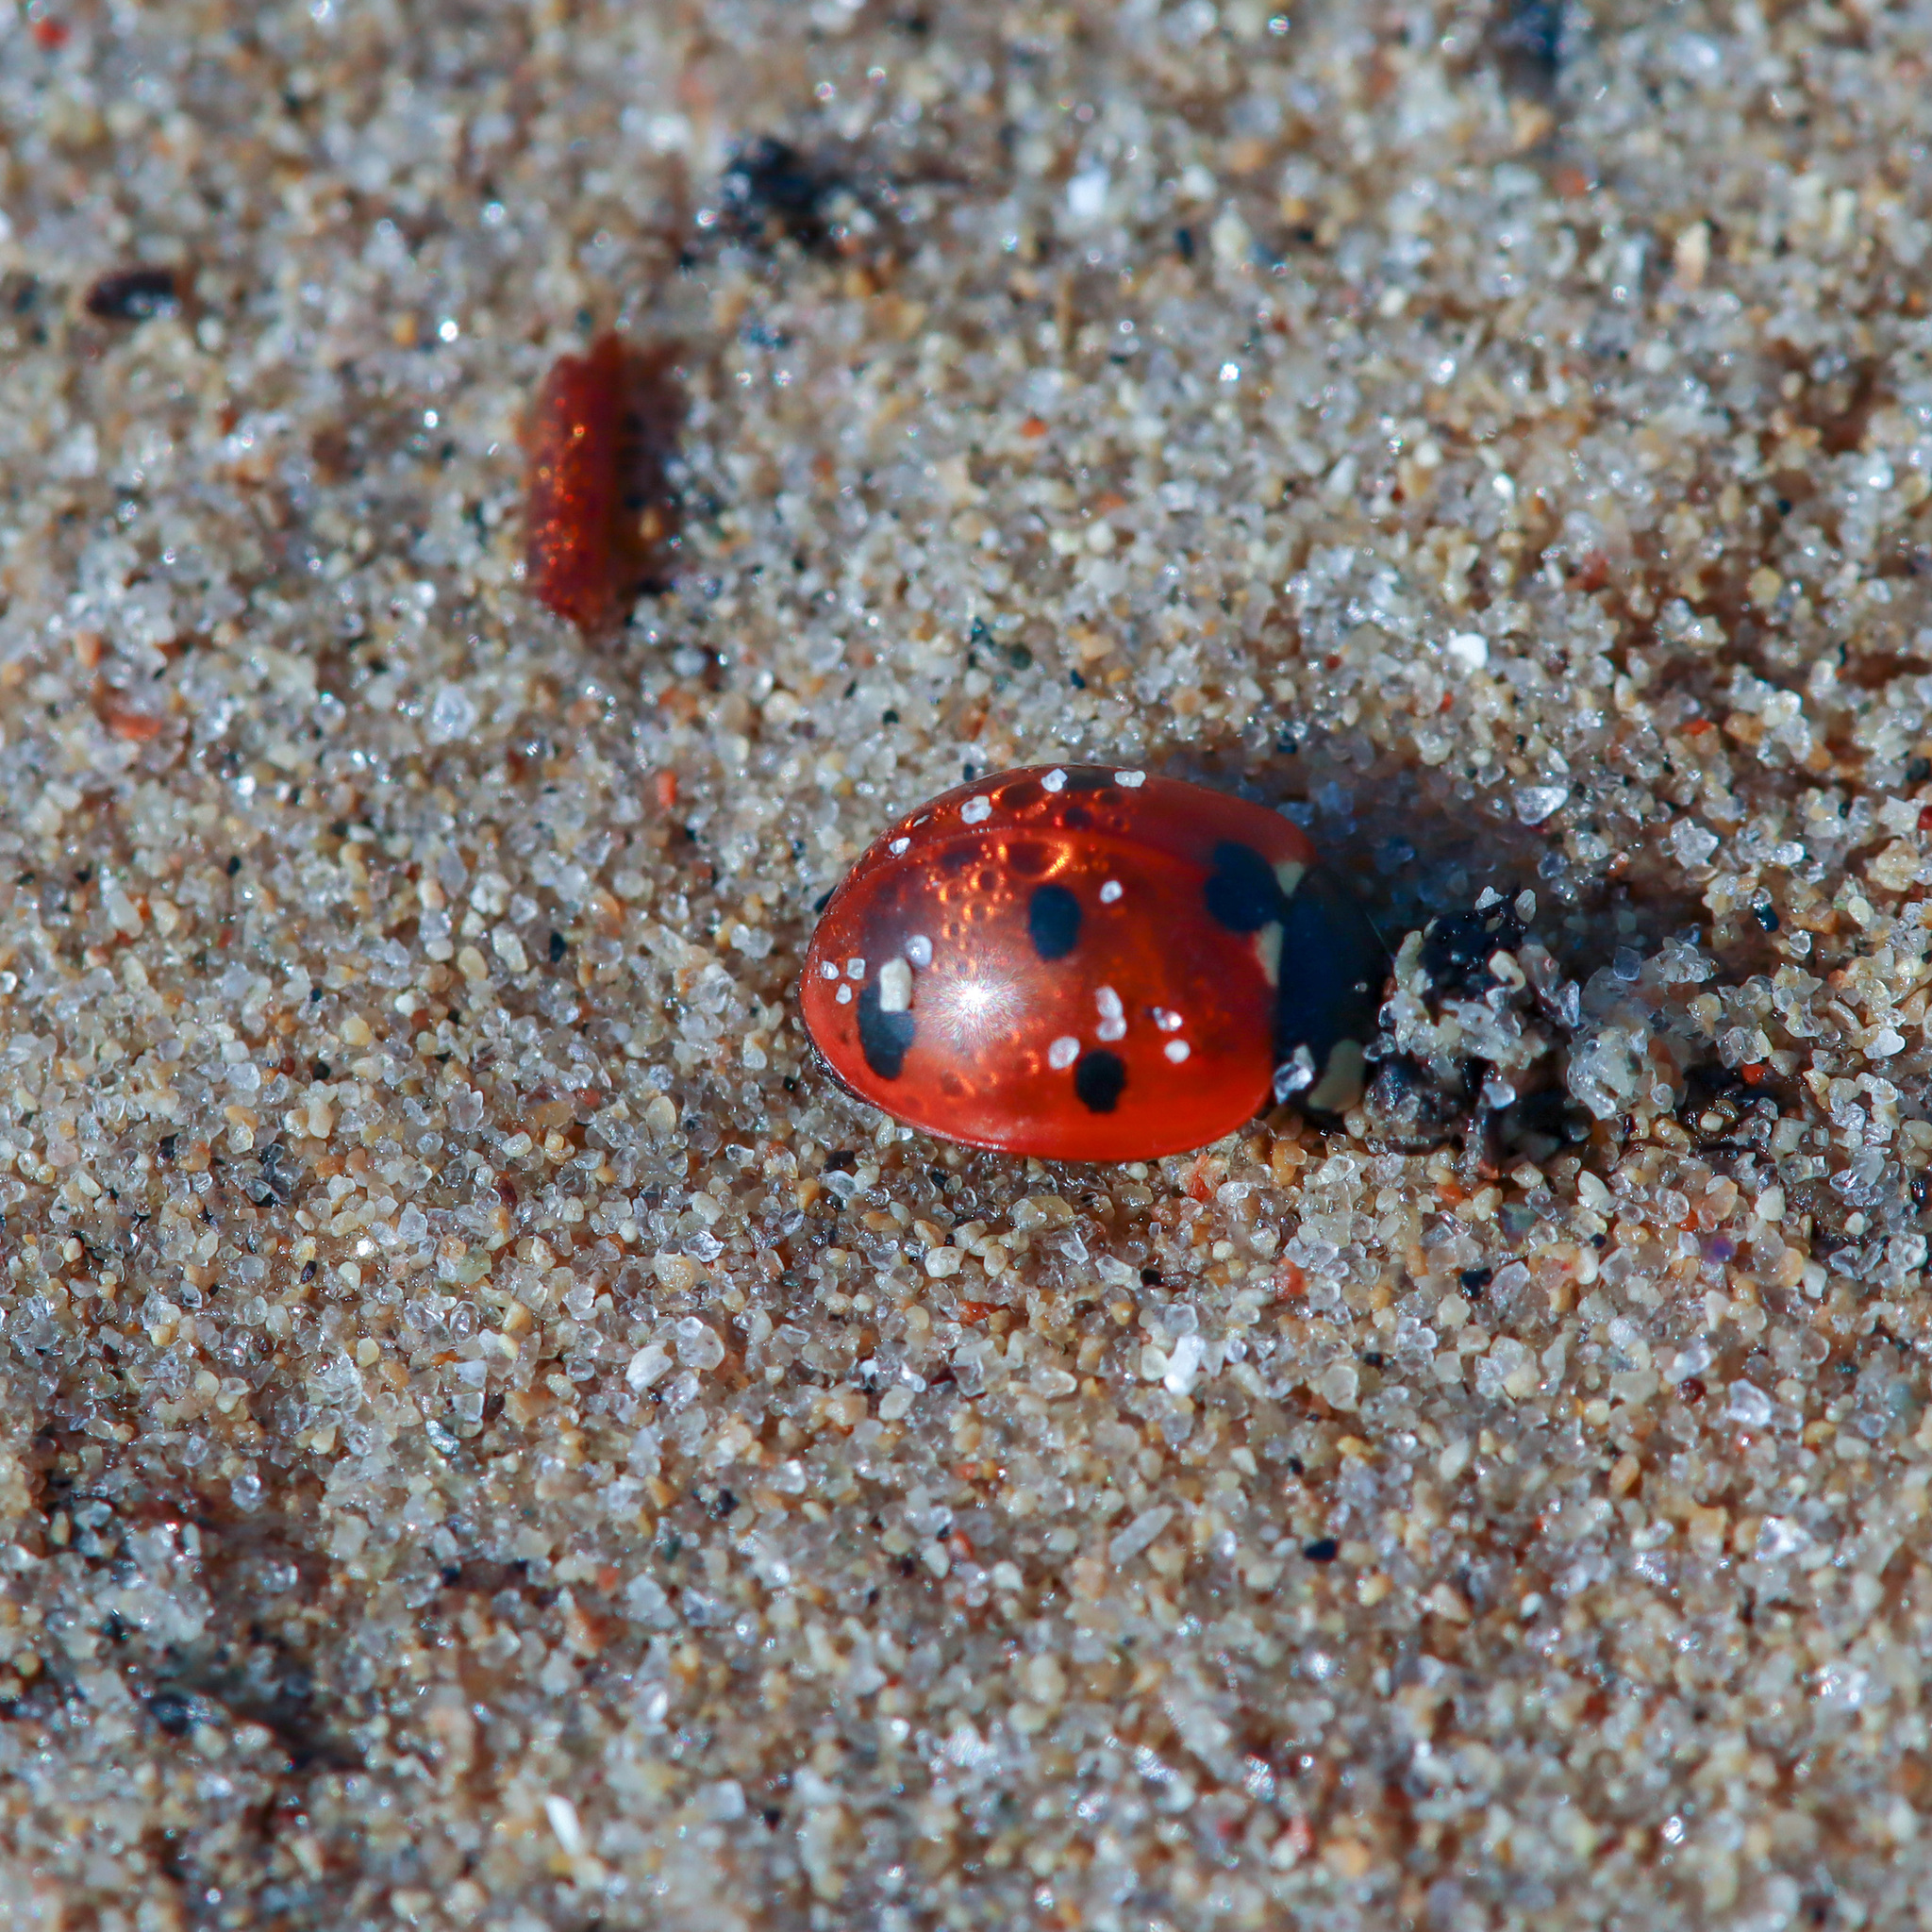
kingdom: Animalia
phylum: Arthropoda
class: Insecta
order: Coleoptera
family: Coccinellidae
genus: Coccinella
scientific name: Coccinella septempunctata
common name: Sevenspotted lady beetle
